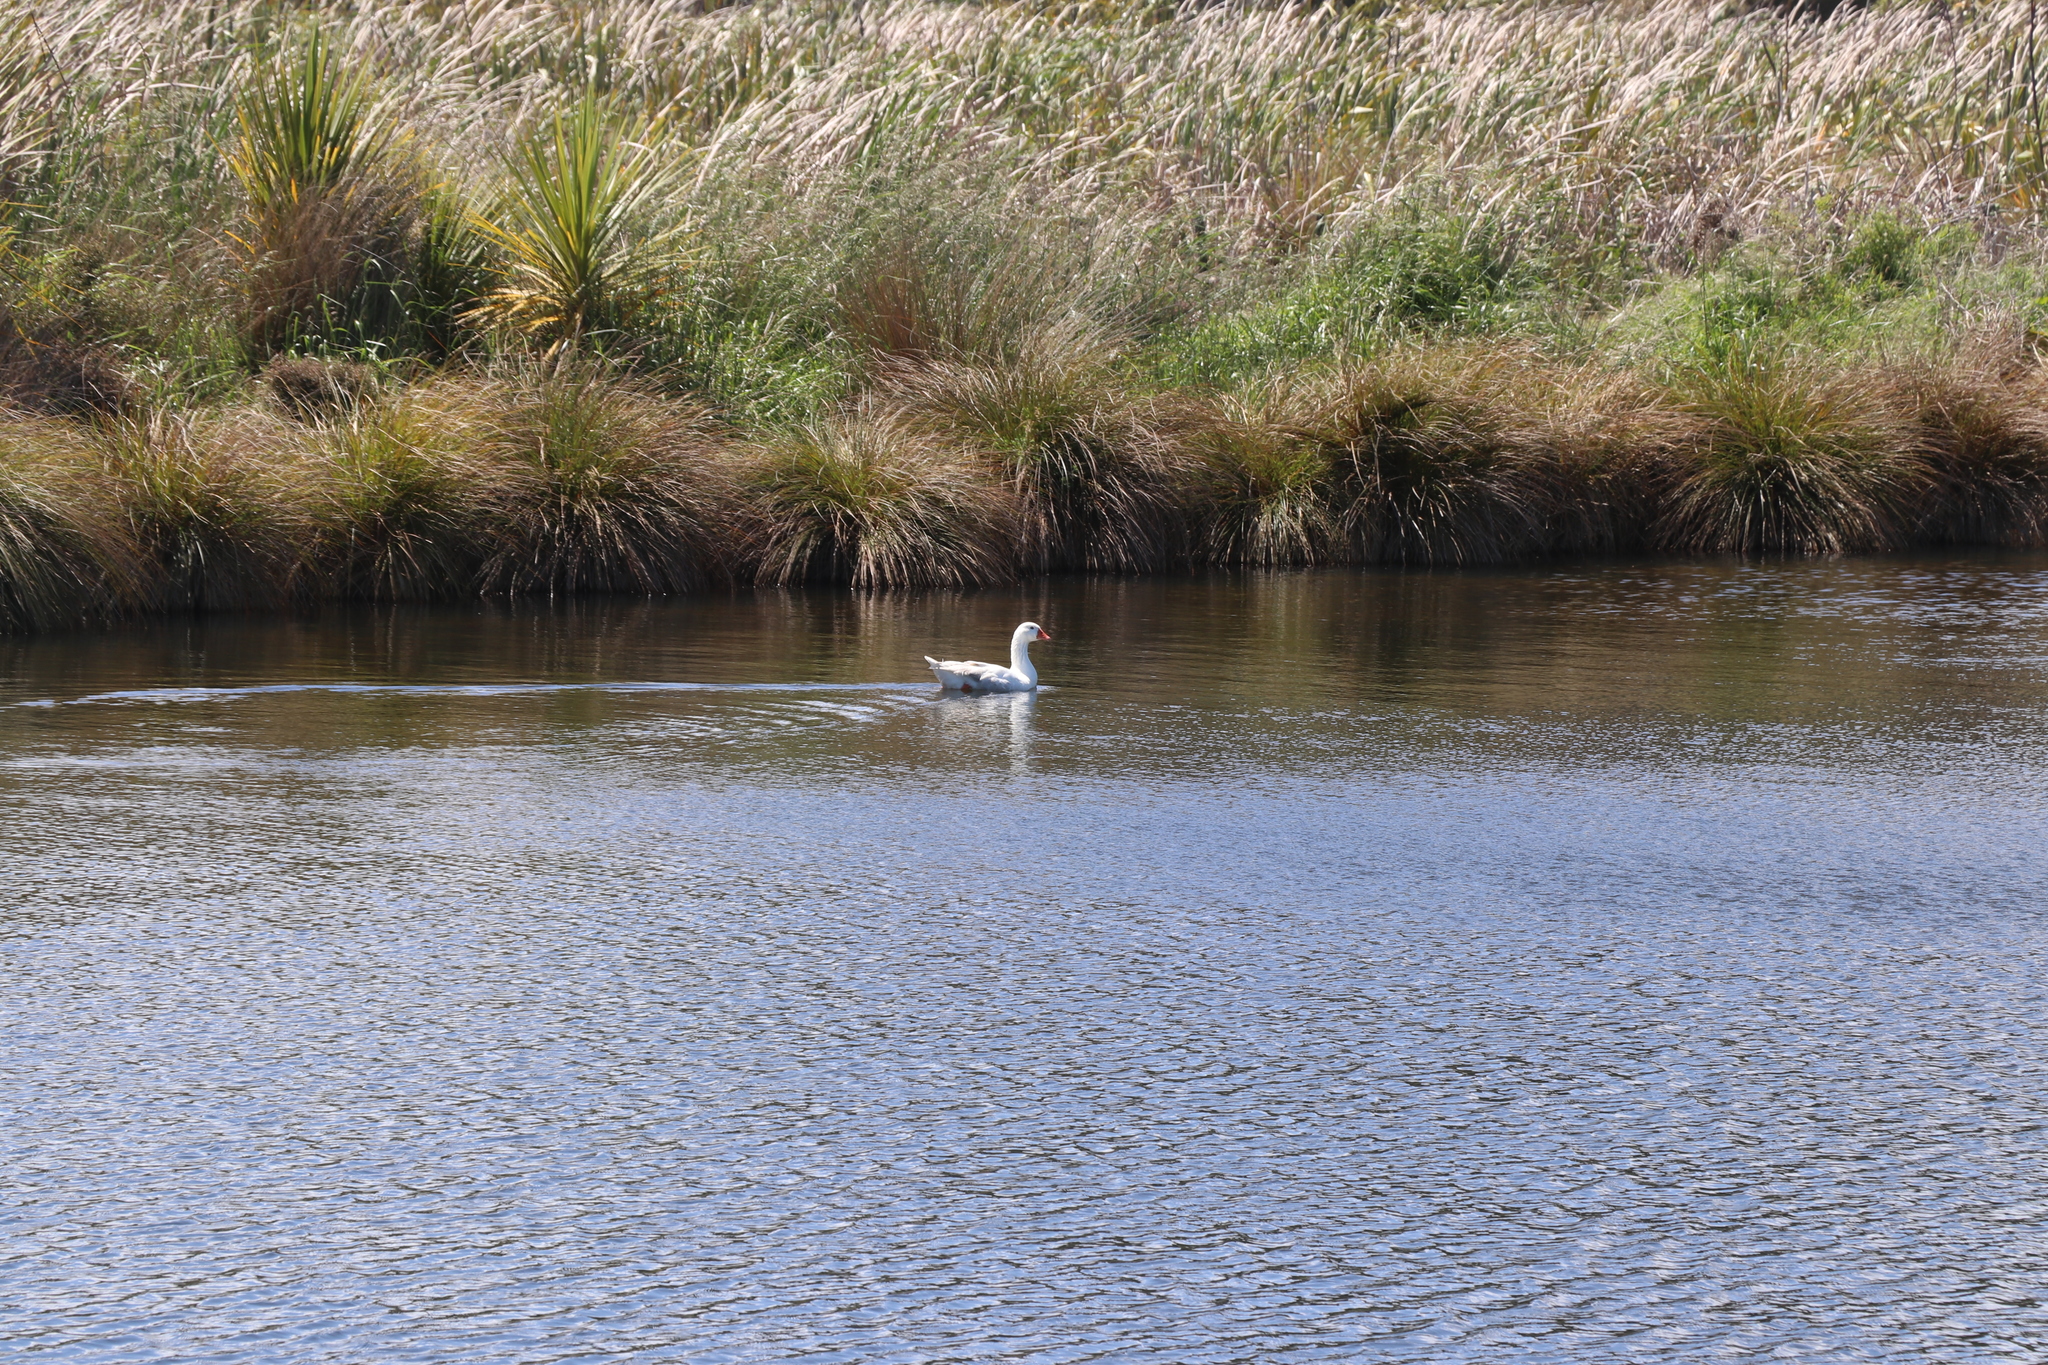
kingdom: Animalia
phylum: Chordata
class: Aves
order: Anseriformes
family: Anatidae
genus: Anser
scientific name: Anser anser
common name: Greylag goose
